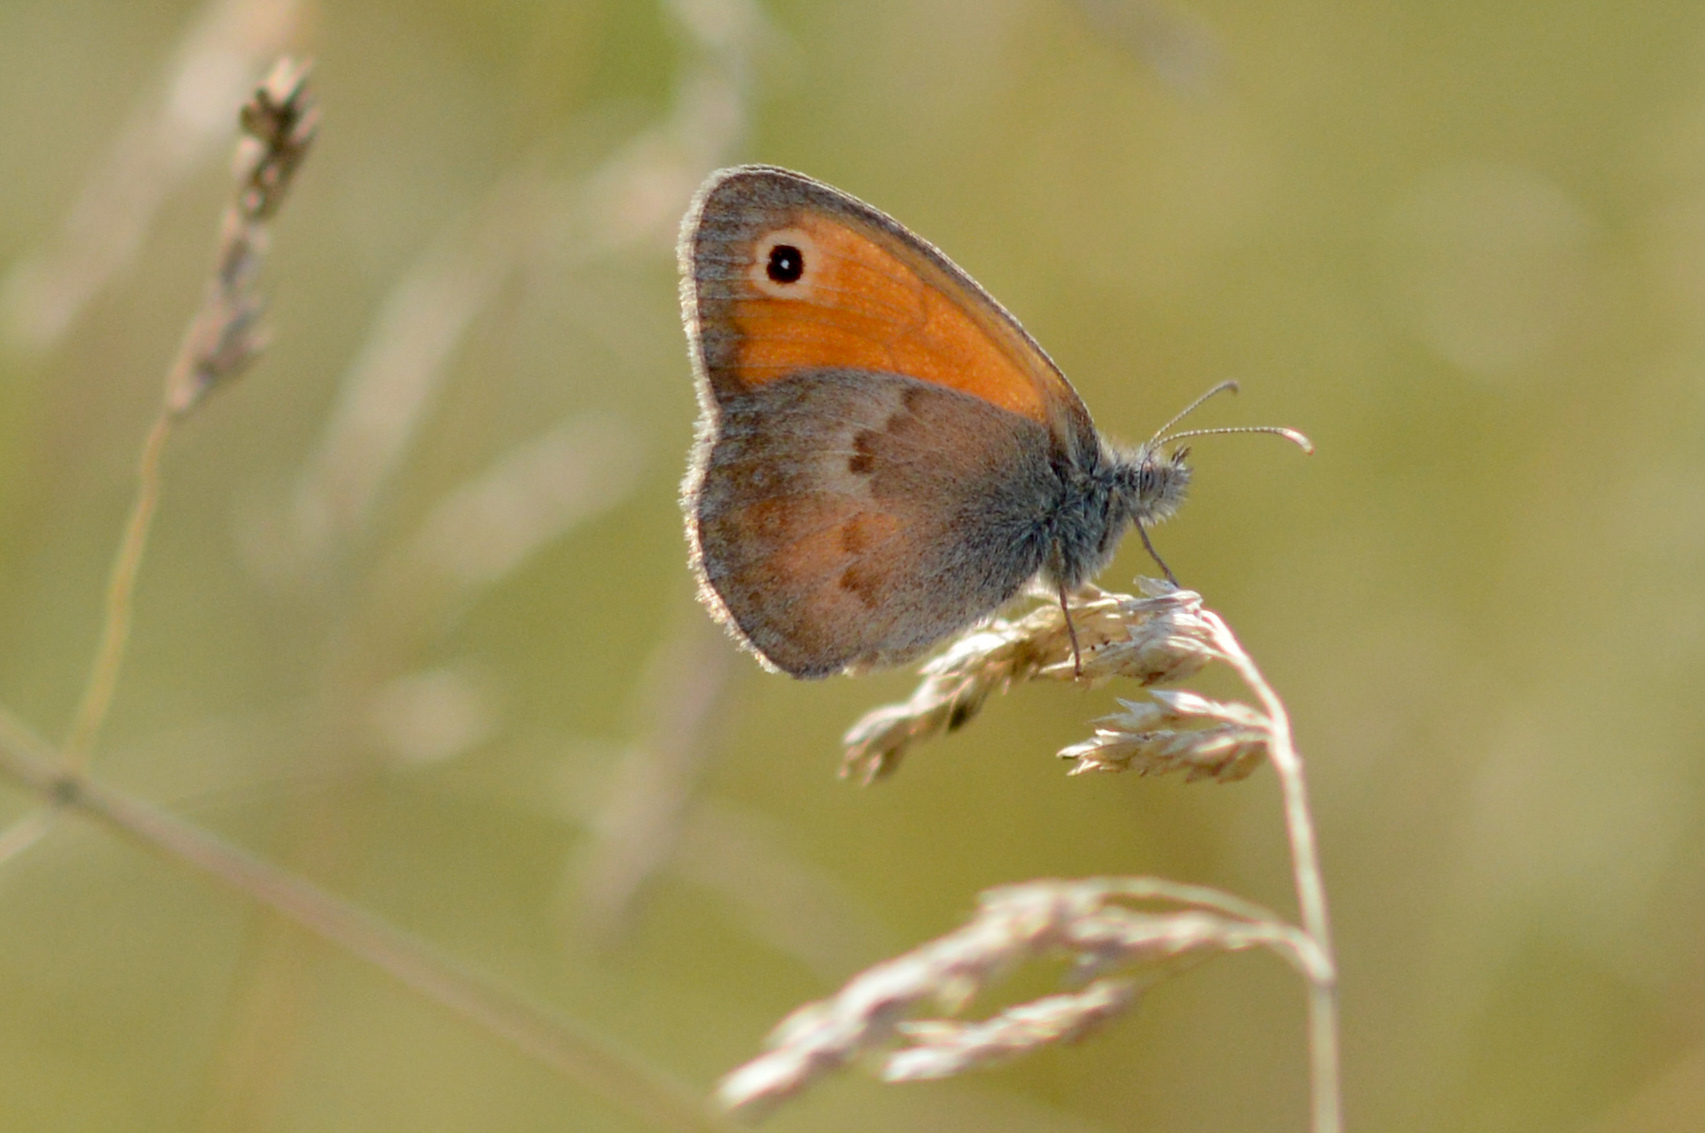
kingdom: Animalia
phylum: Arthropoda
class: Insecta
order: Lepidoptera
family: Nymphalidae
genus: Coenonympha
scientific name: Coenonympha pamphilus
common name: Small heath
